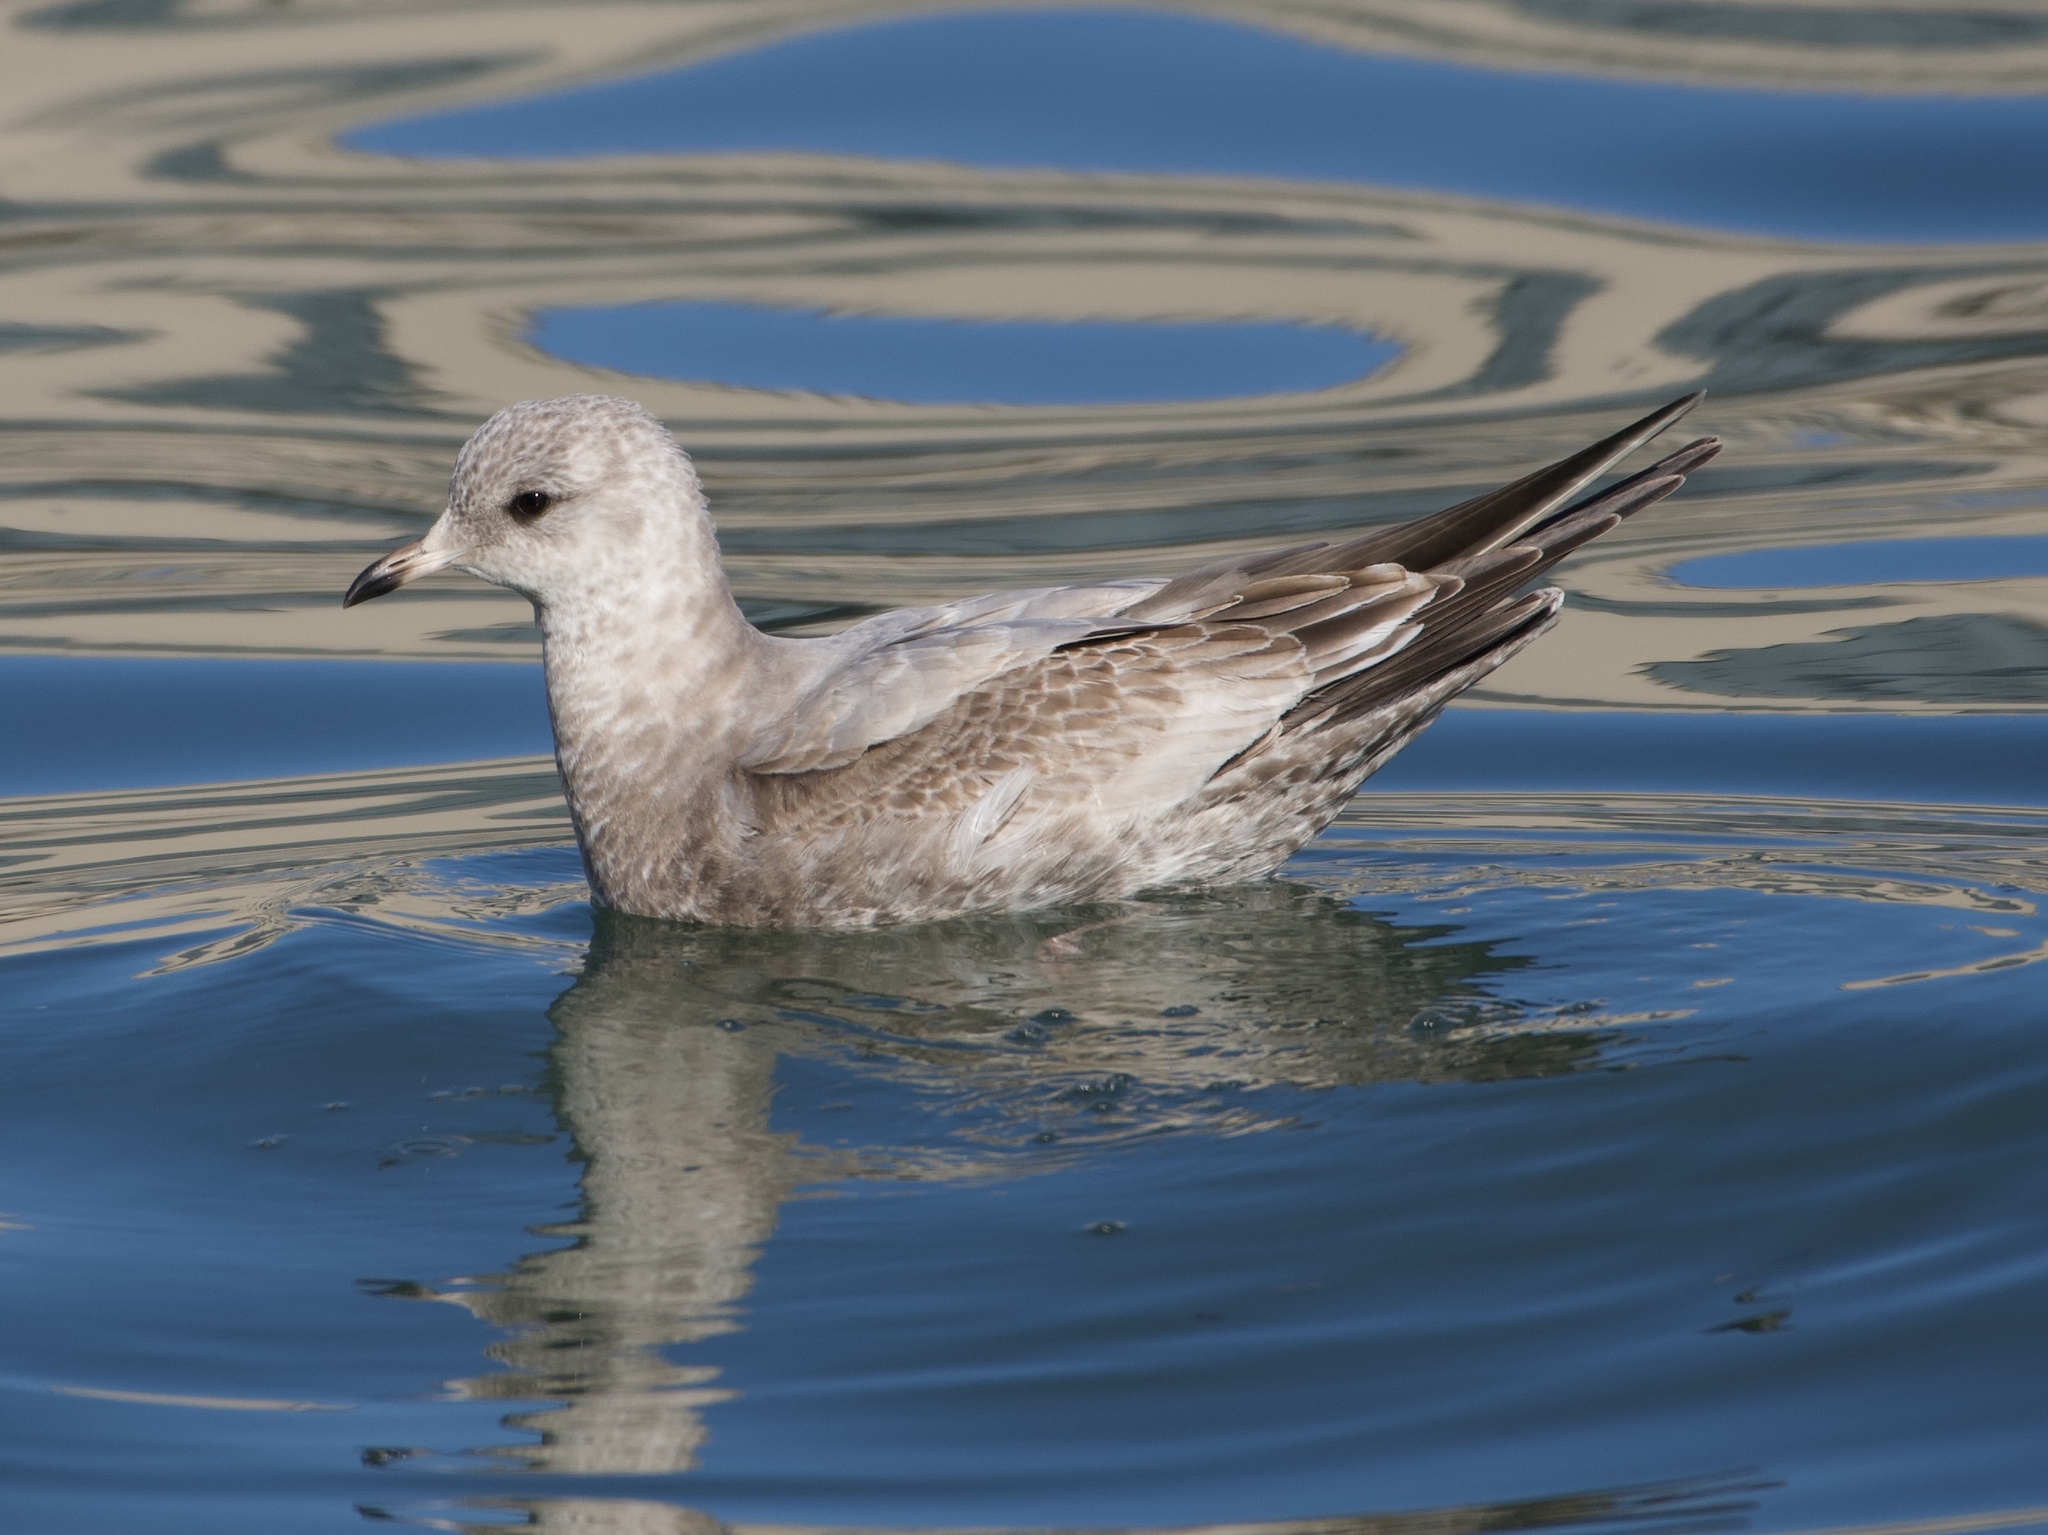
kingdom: Animalia
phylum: Chordata
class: Aves
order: Charadriiformes
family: Laridae
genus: Larus
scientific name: Larus brachyrhynchus
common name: Short-billed gull
